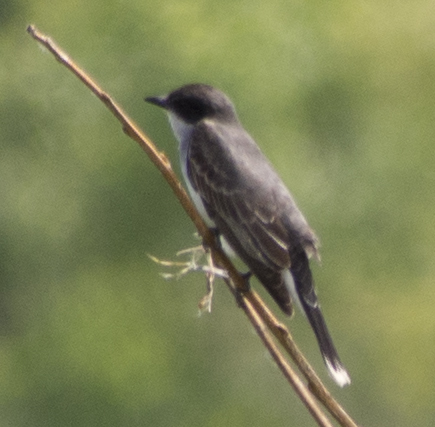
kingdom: Animalia
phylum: Chordata
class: Aves
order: Passeriformes
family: Tyrannidae
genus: Tyrannus
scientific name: Tyrannus tyrannus
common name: Eastern kingbird
